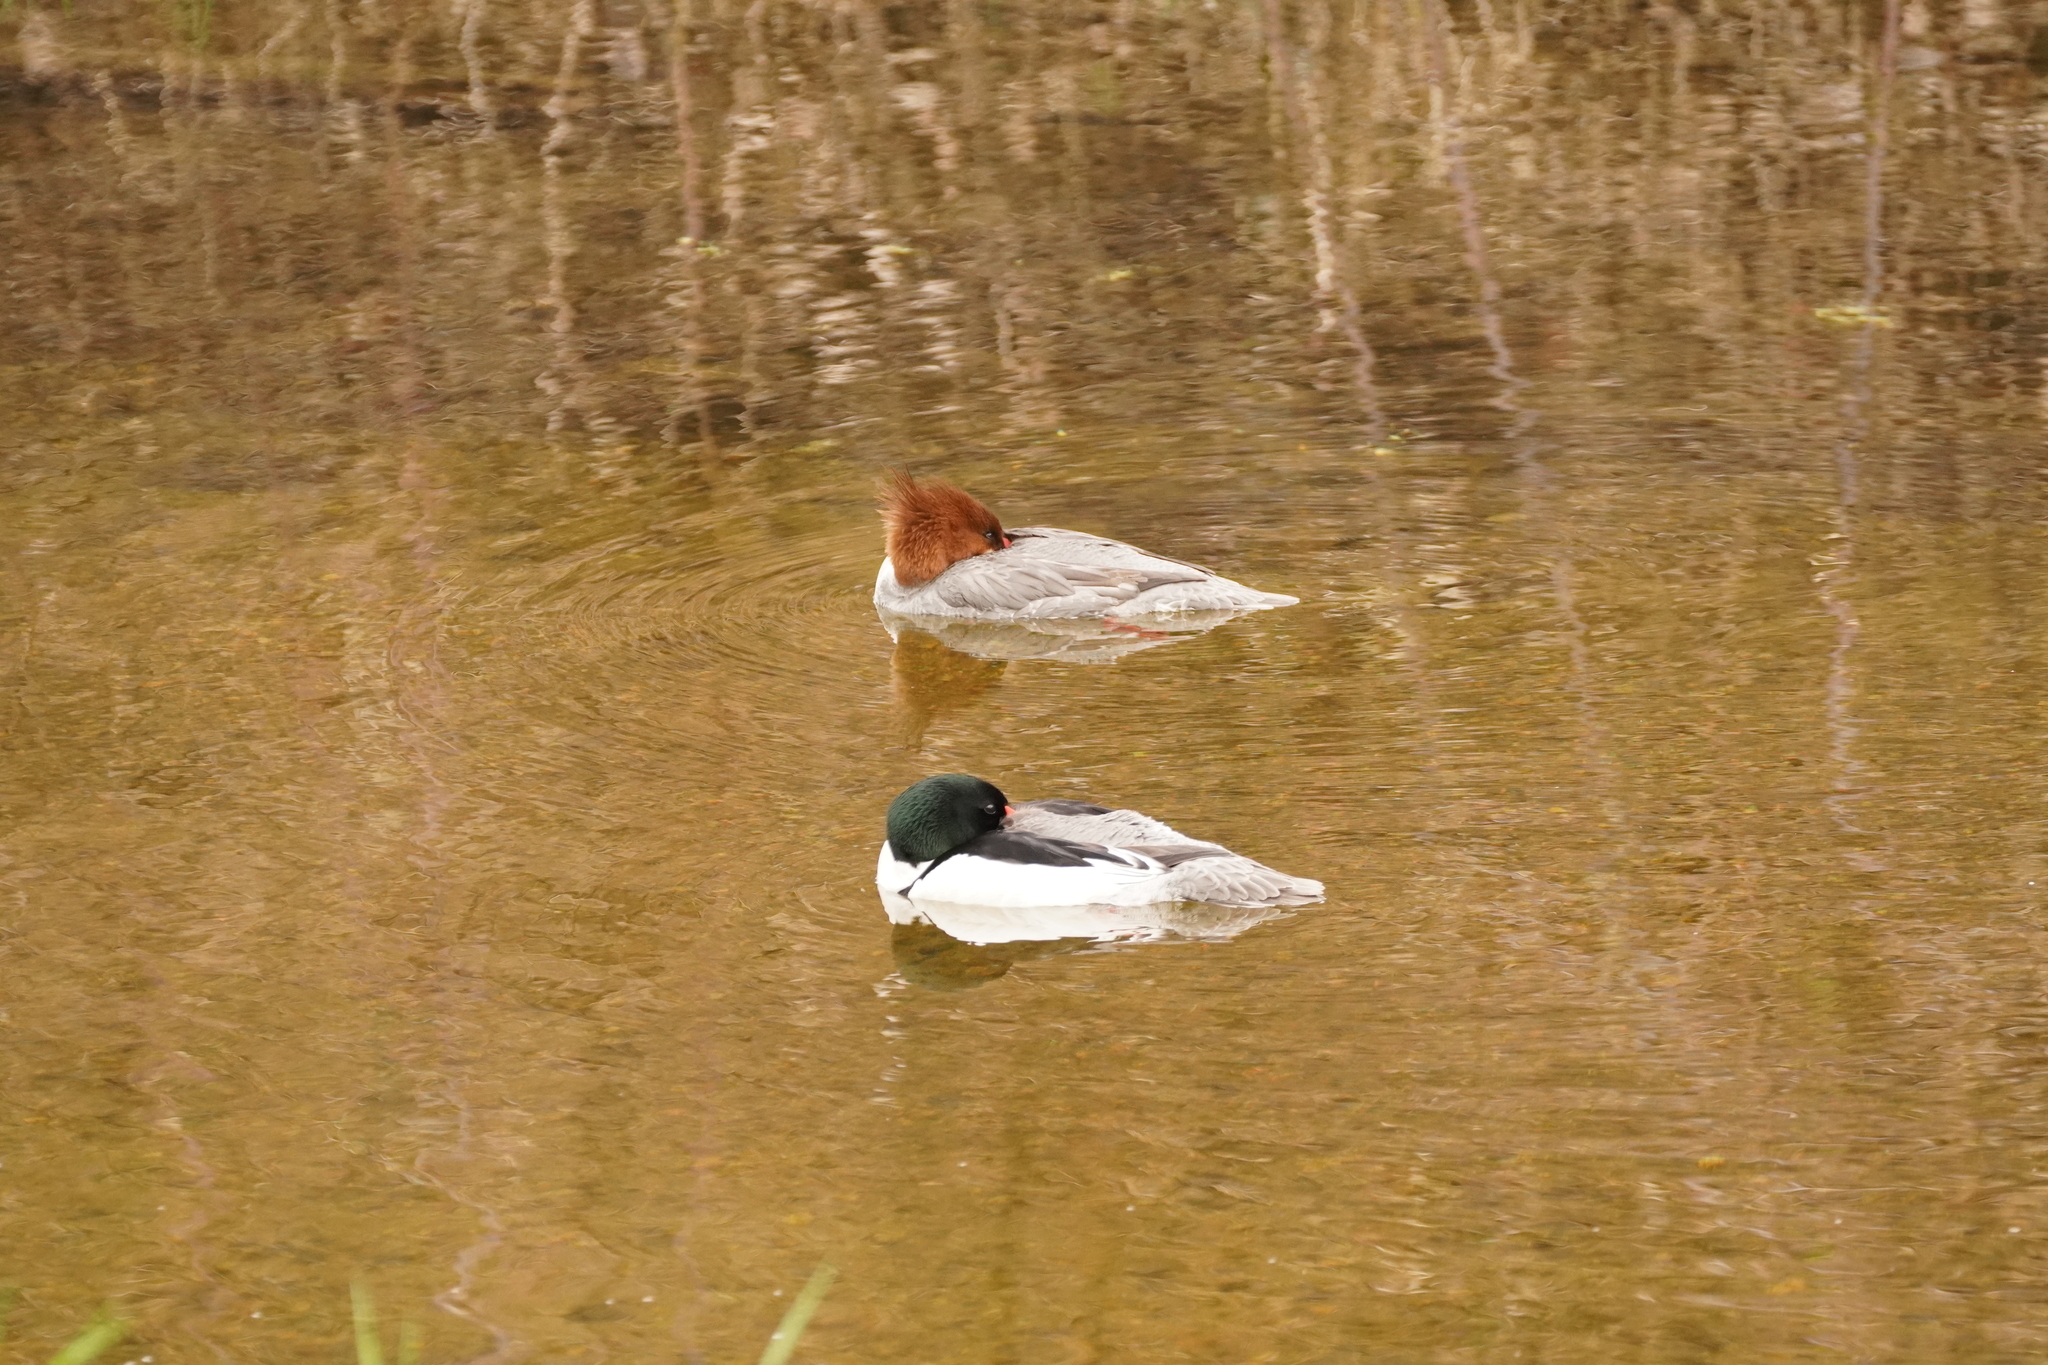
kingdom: Animalia
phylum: Chordata
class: Aves
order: Anseriformes
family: Anatidae
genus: Mergus
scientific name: Mergus merganser
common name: Common merganser
